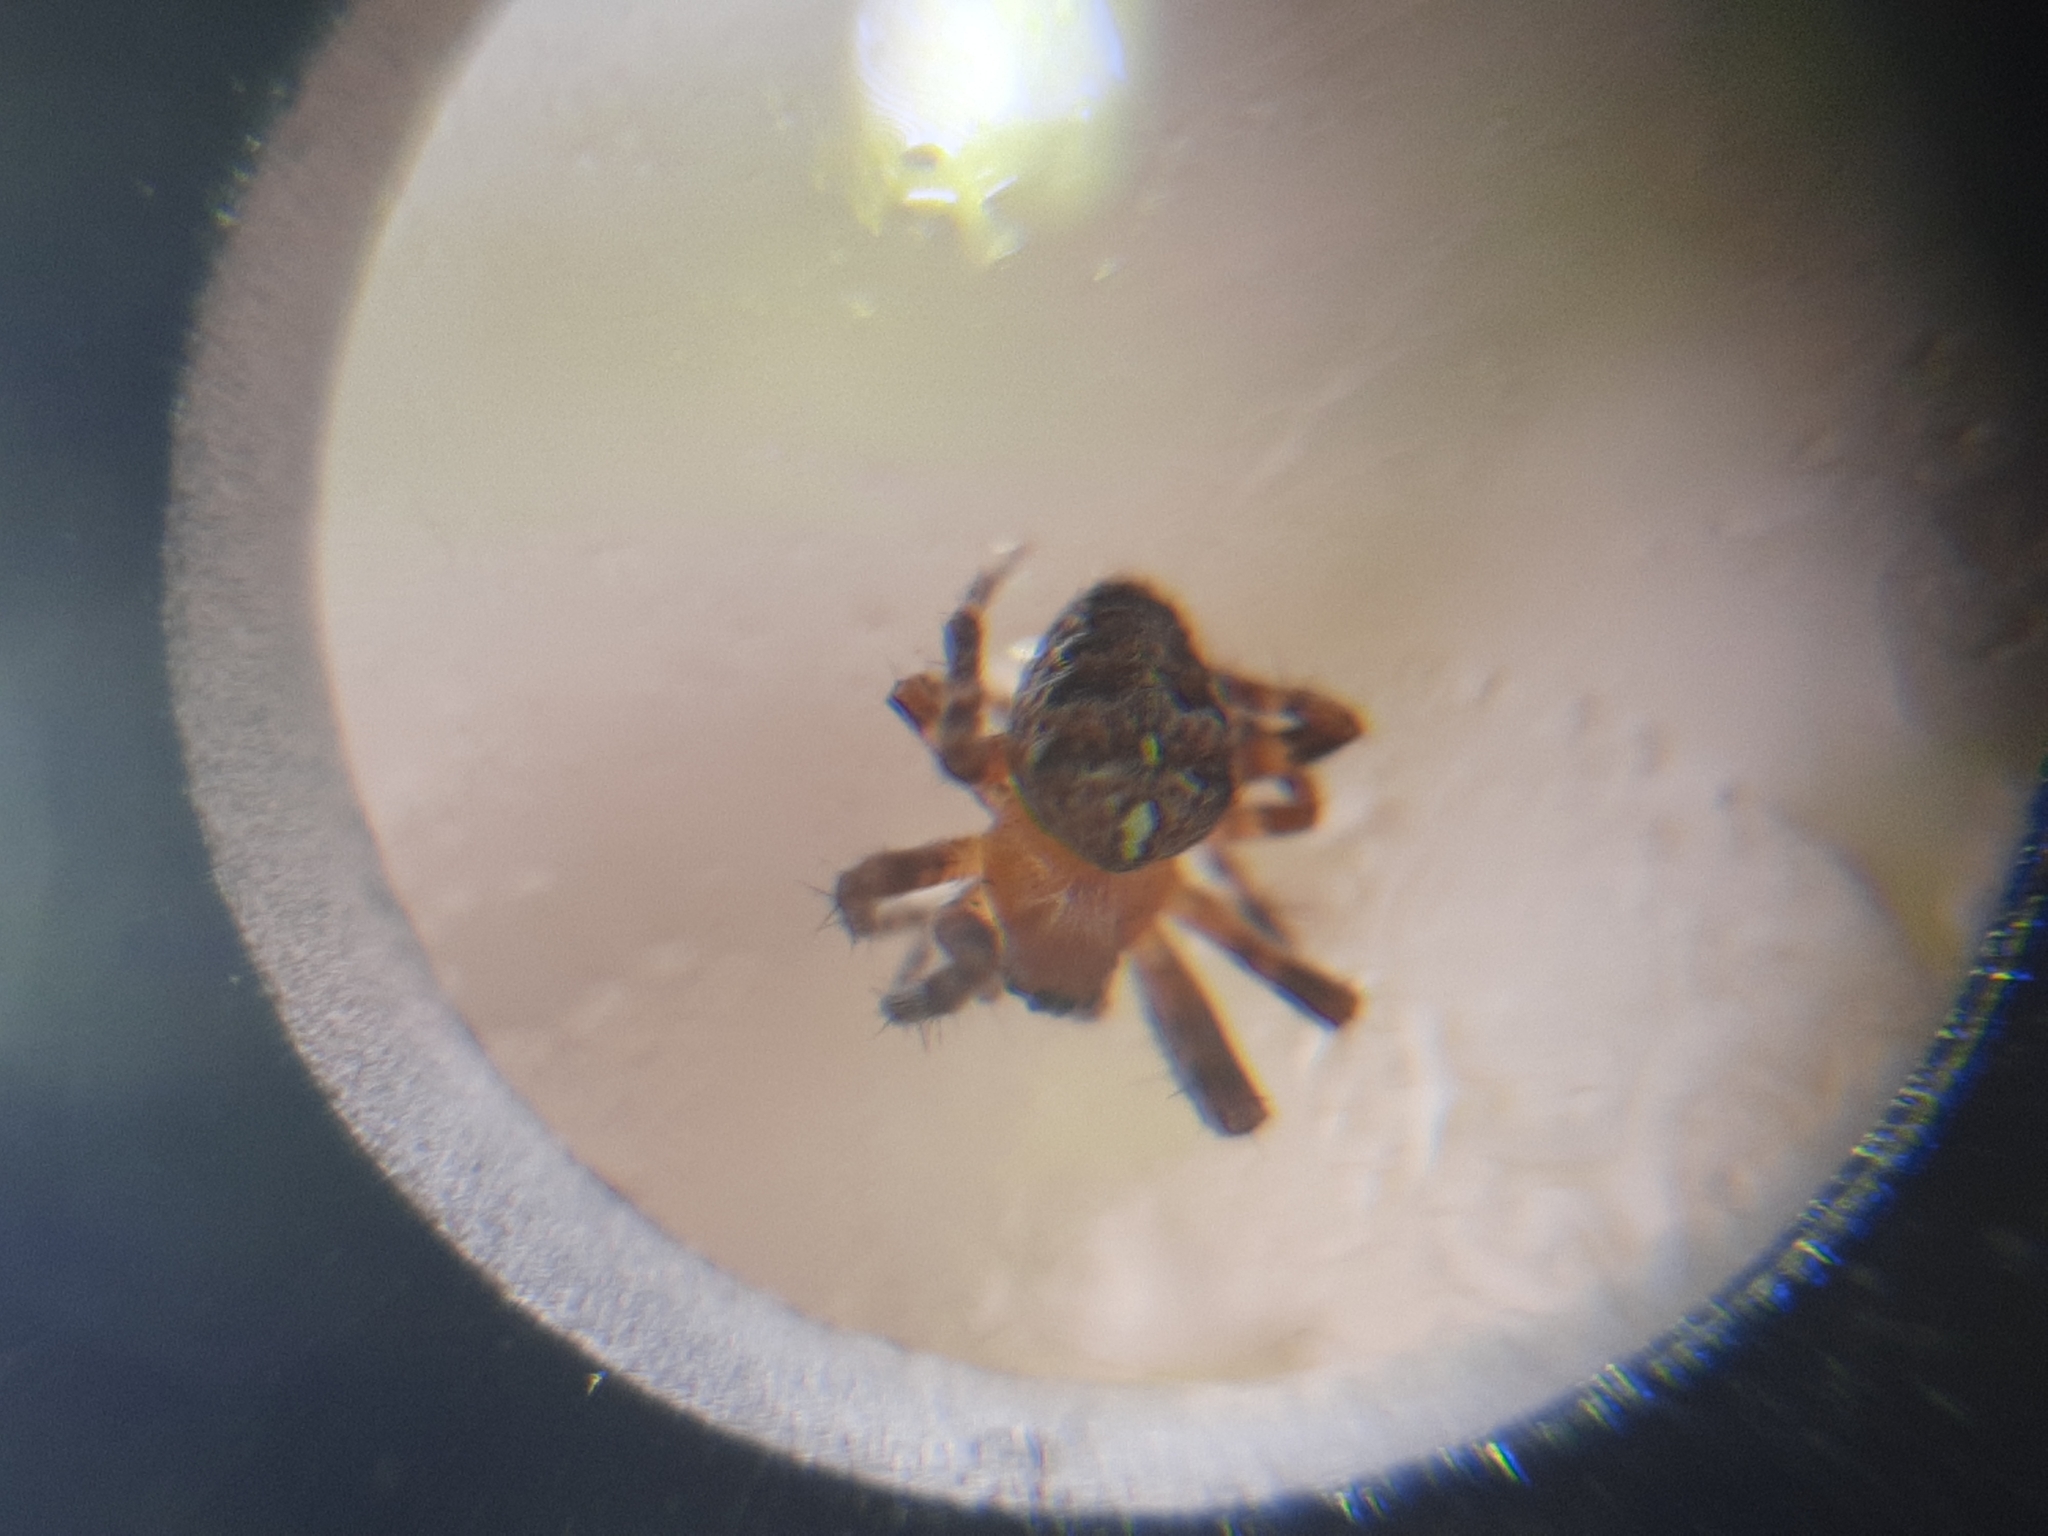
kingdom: Animalia
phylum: Arthropoda
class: Arachnida
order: Araneae
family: Araneidae
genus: Araneus
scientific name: Araneus diadematus
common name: Cross orbweaver
